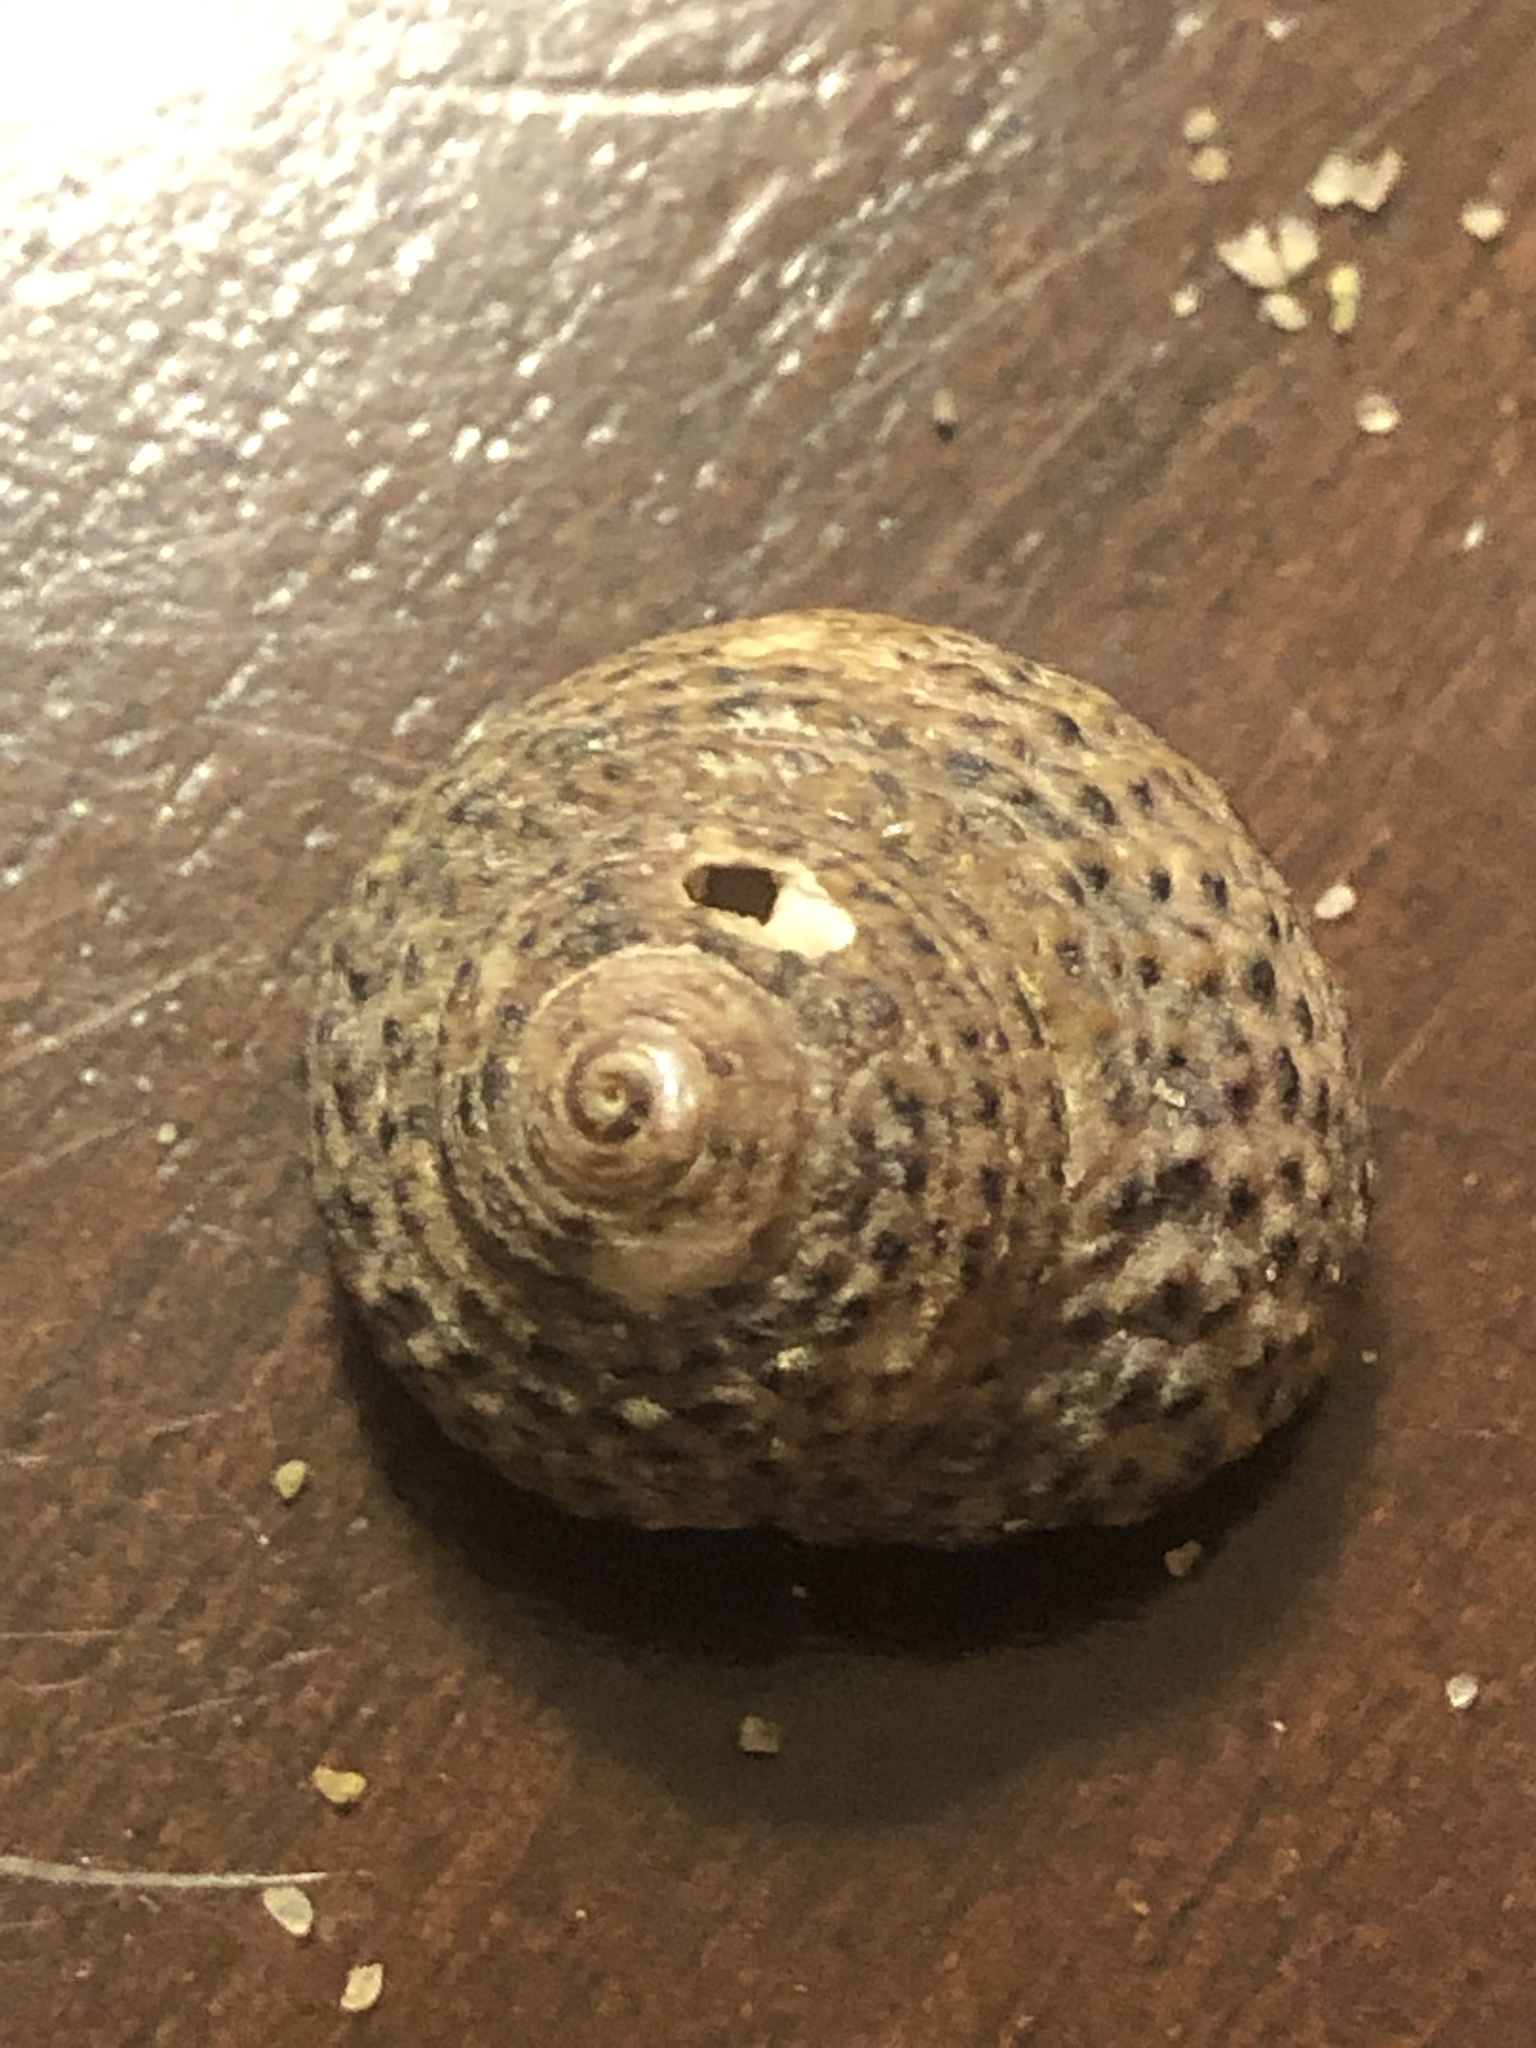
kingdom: Animalia
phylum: Mollusca
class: Gastropoda
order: Trochida
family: Tegulidae
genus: Tegula
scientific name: Tegula eiseni
